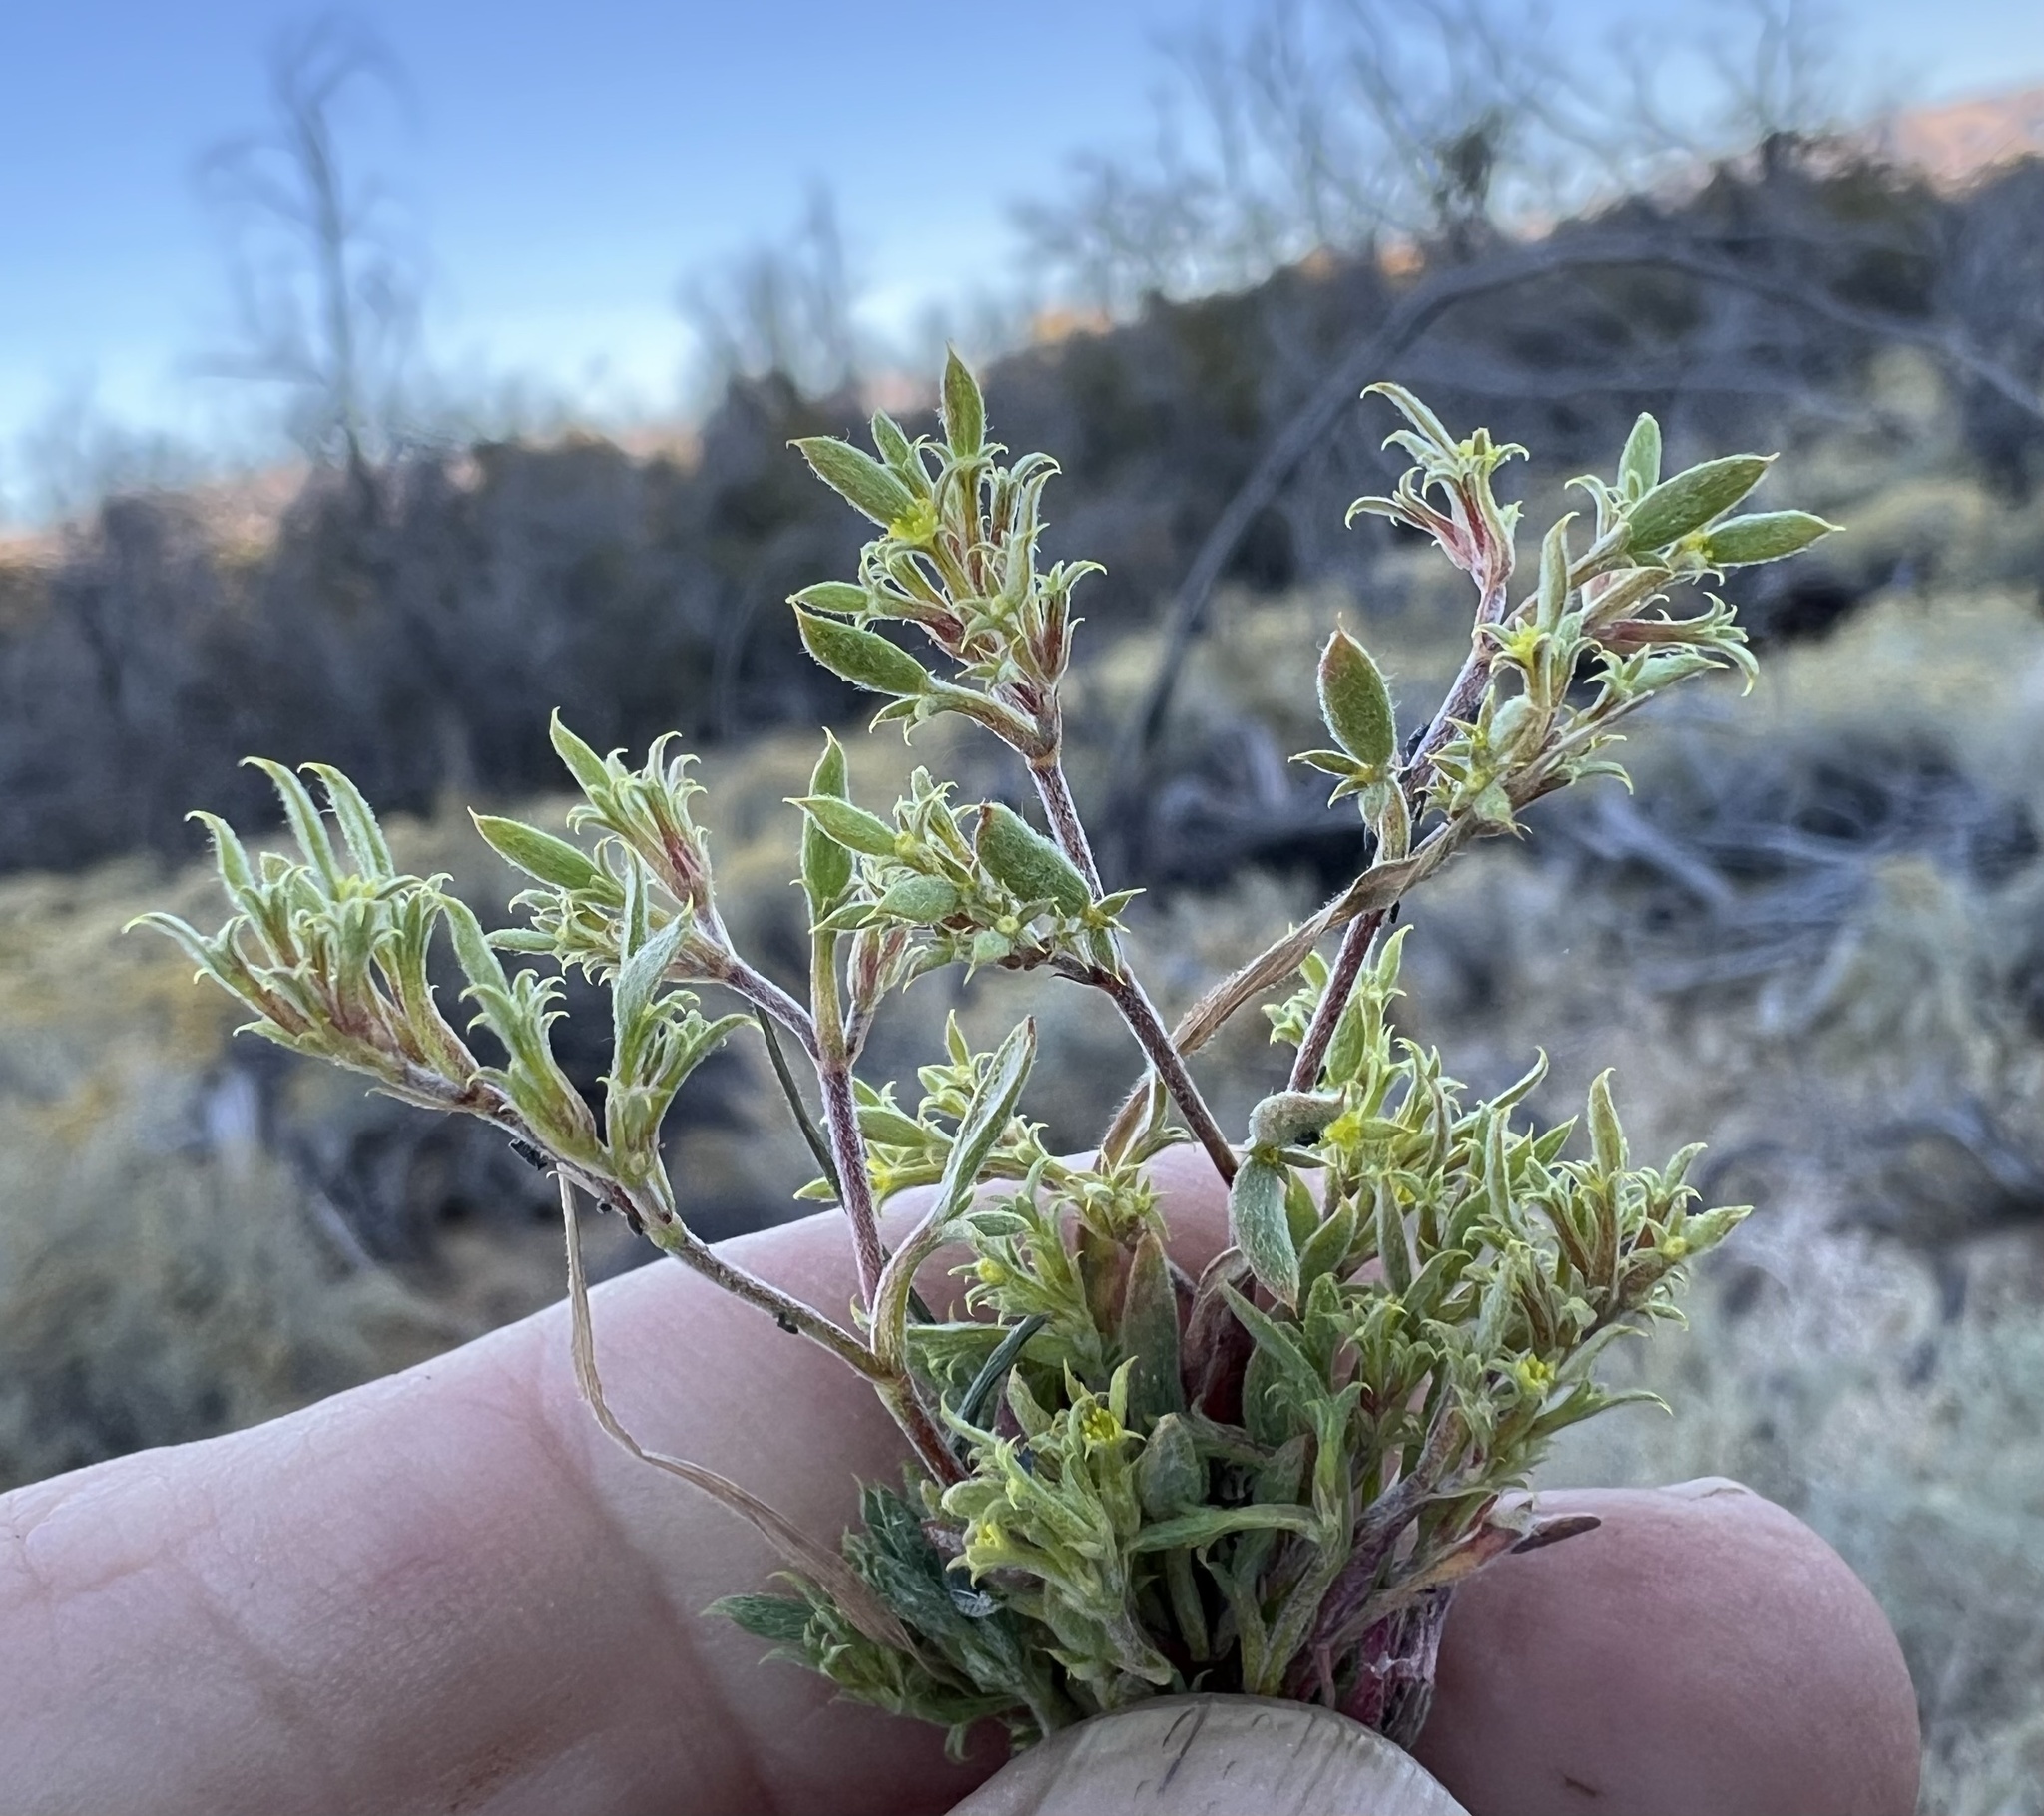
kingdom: Plantae
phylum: Tracheophyta
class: Magnoliopsida
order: Caryophyllales
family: Polygonaceae
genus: Chorizanthe
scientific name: Chorizanthe watsonii
